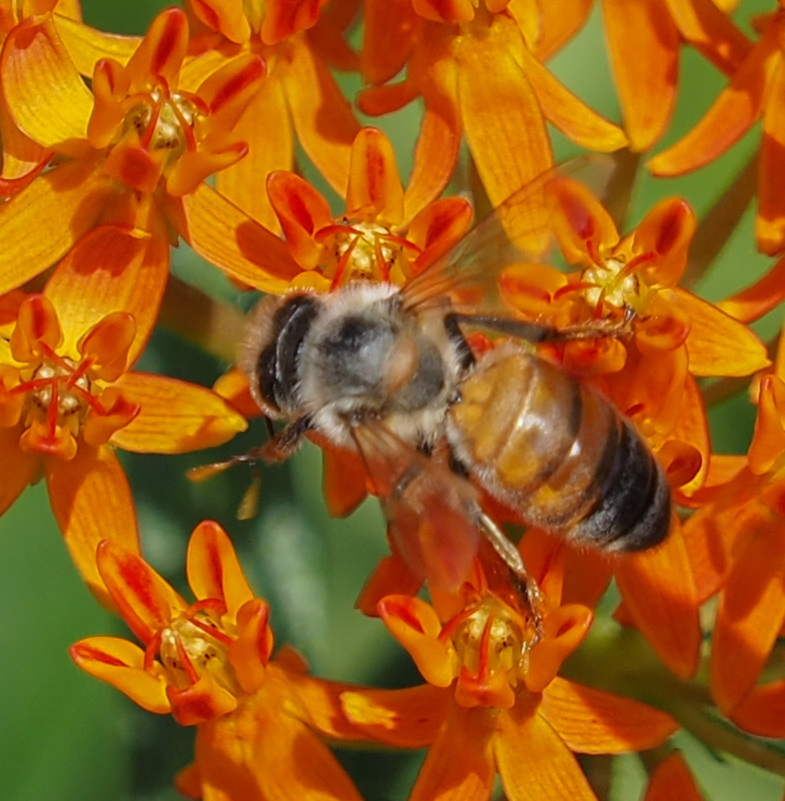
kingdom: Animalia
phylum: Arthropoda
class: Insecta
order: Hymenoptera
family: Apidae
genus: Apis
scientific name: Apis mellifera
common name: Honey bee
